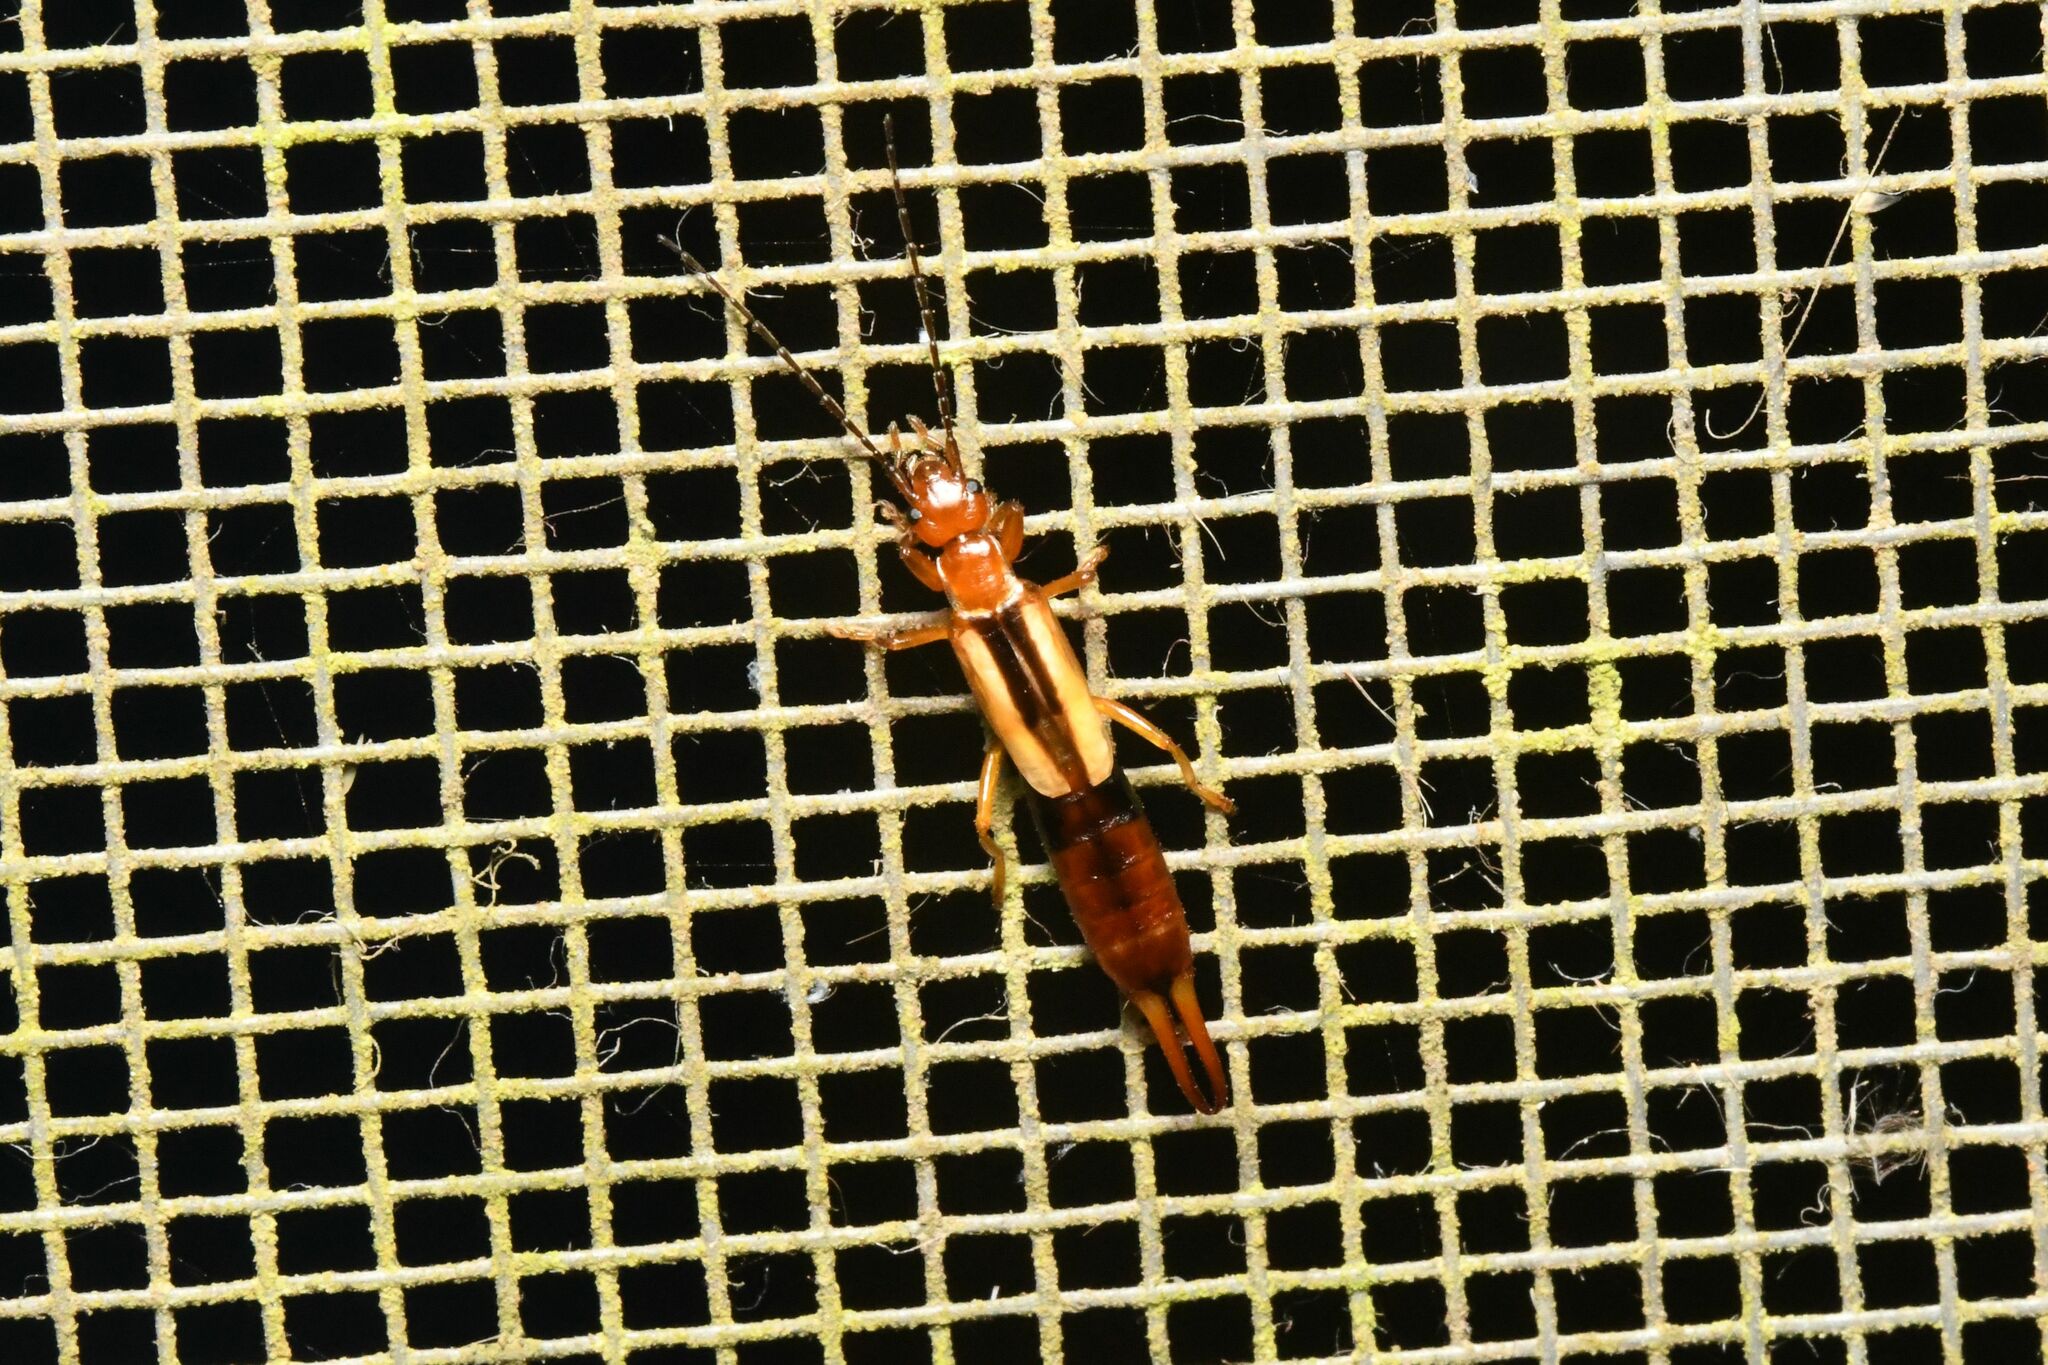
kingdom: Animalia
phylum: Arthropoda
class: Insecta
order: Dermaptera
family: Forficulidae
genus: Diaperasticus
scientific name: Diaperasticus erythrocephalus
